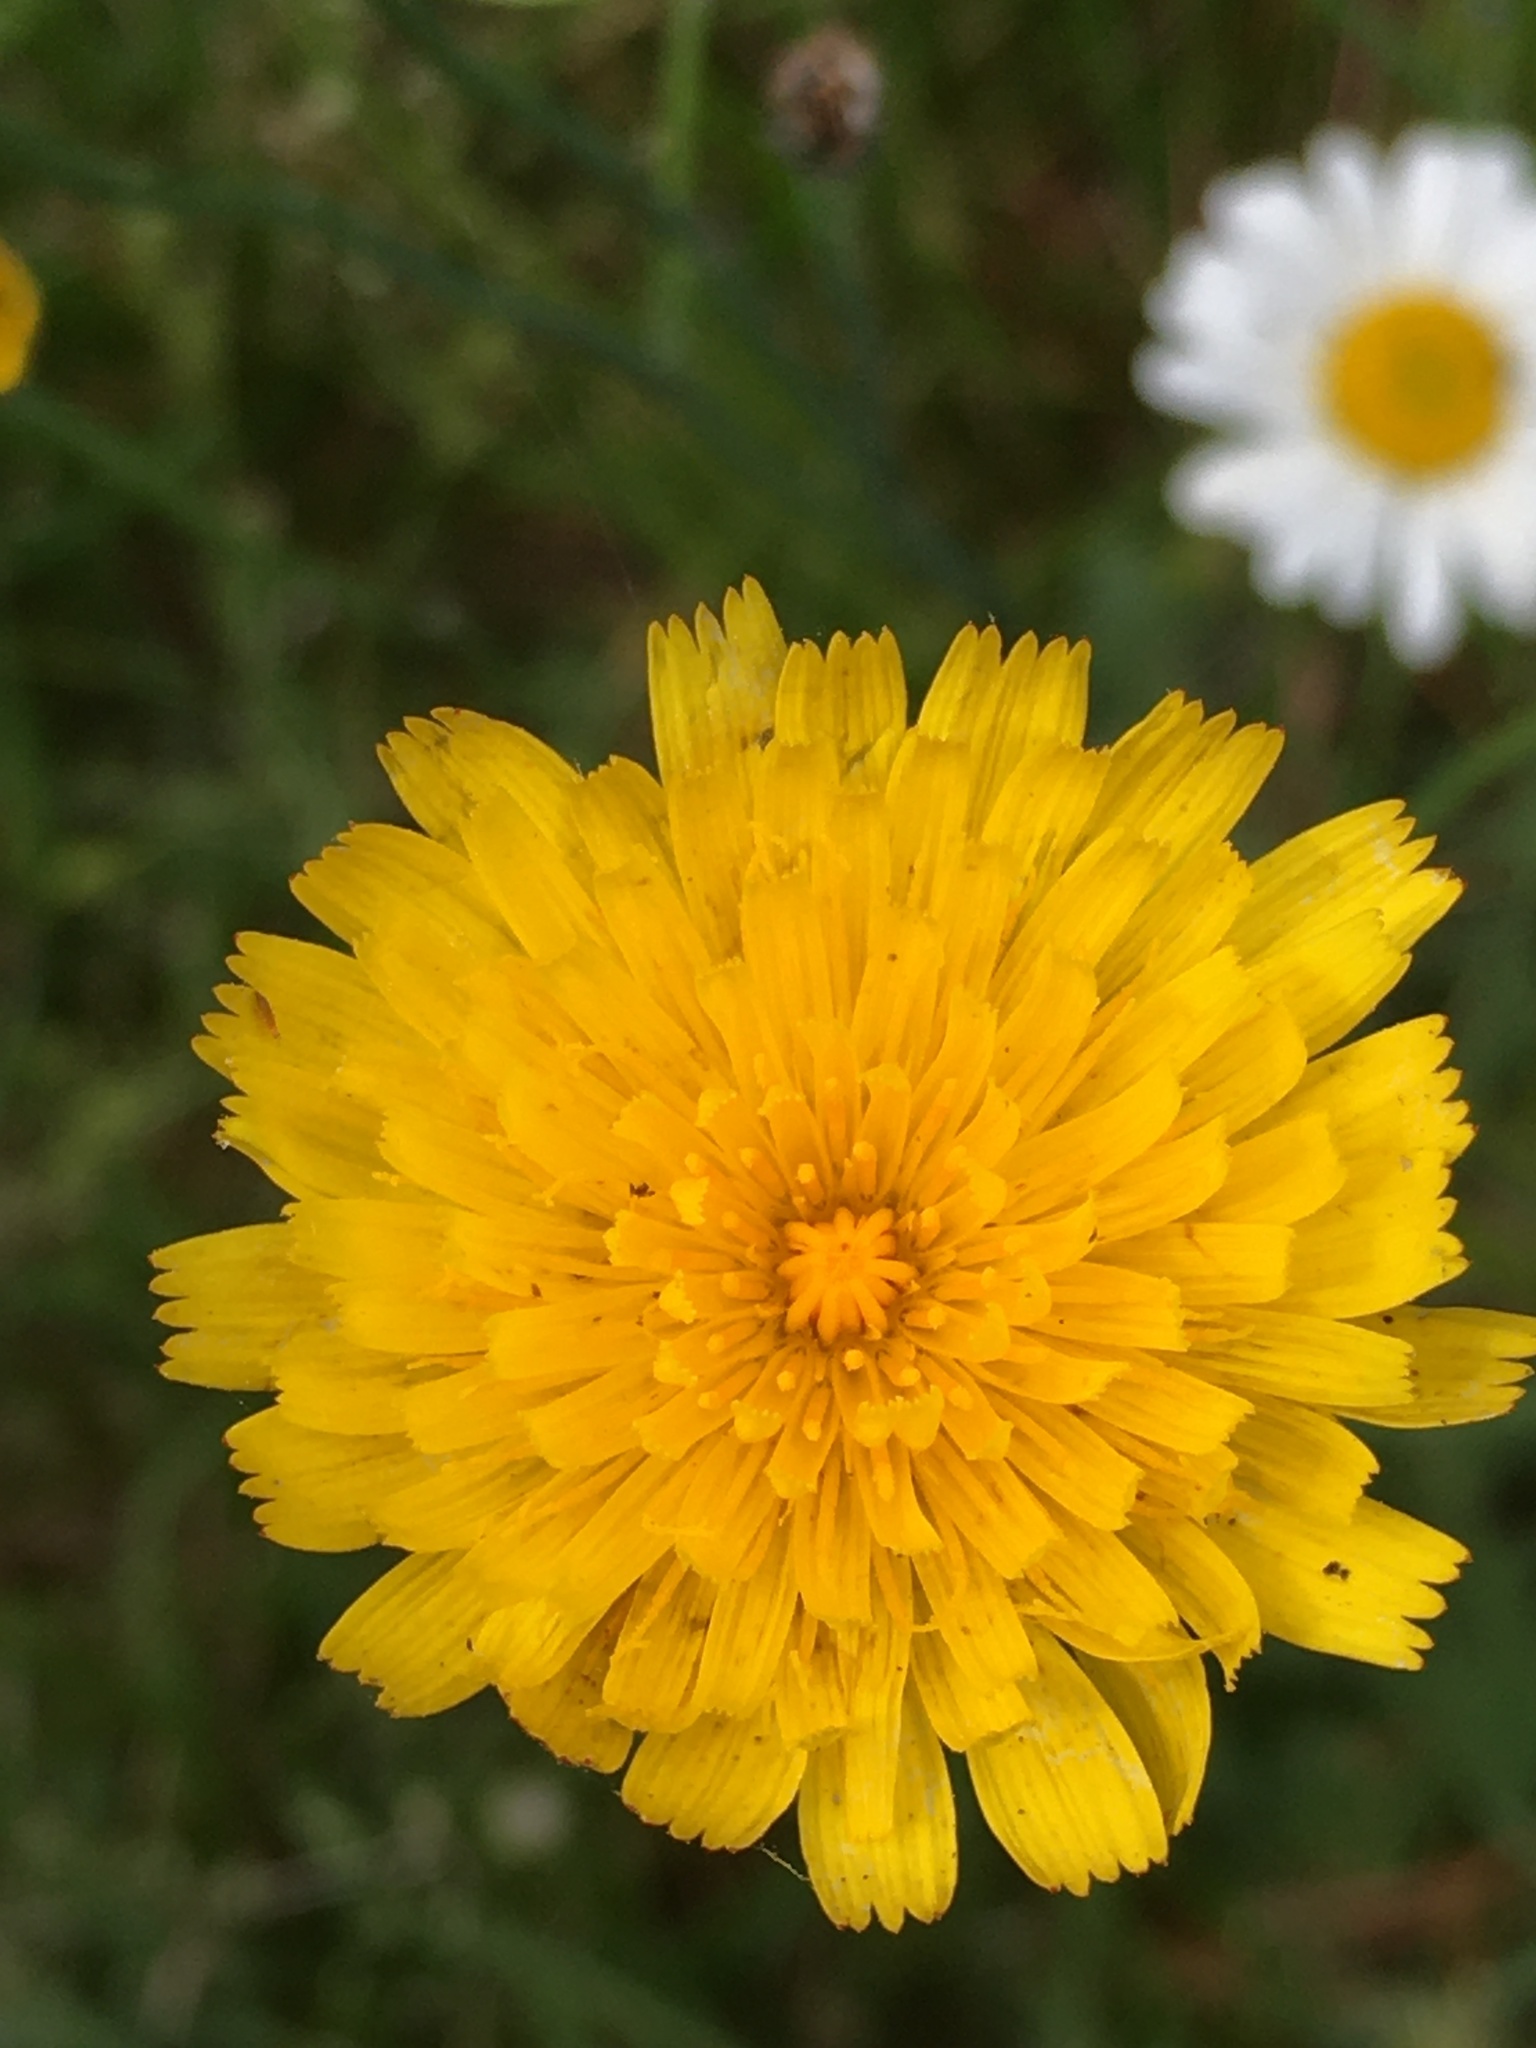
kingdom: Plantae
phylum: Tracheophyta
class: Magnoliopsida
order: Asterales
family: Asteraceae
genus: Hypochaeris
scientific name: Hypochaeris radicata
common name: Flatweed
